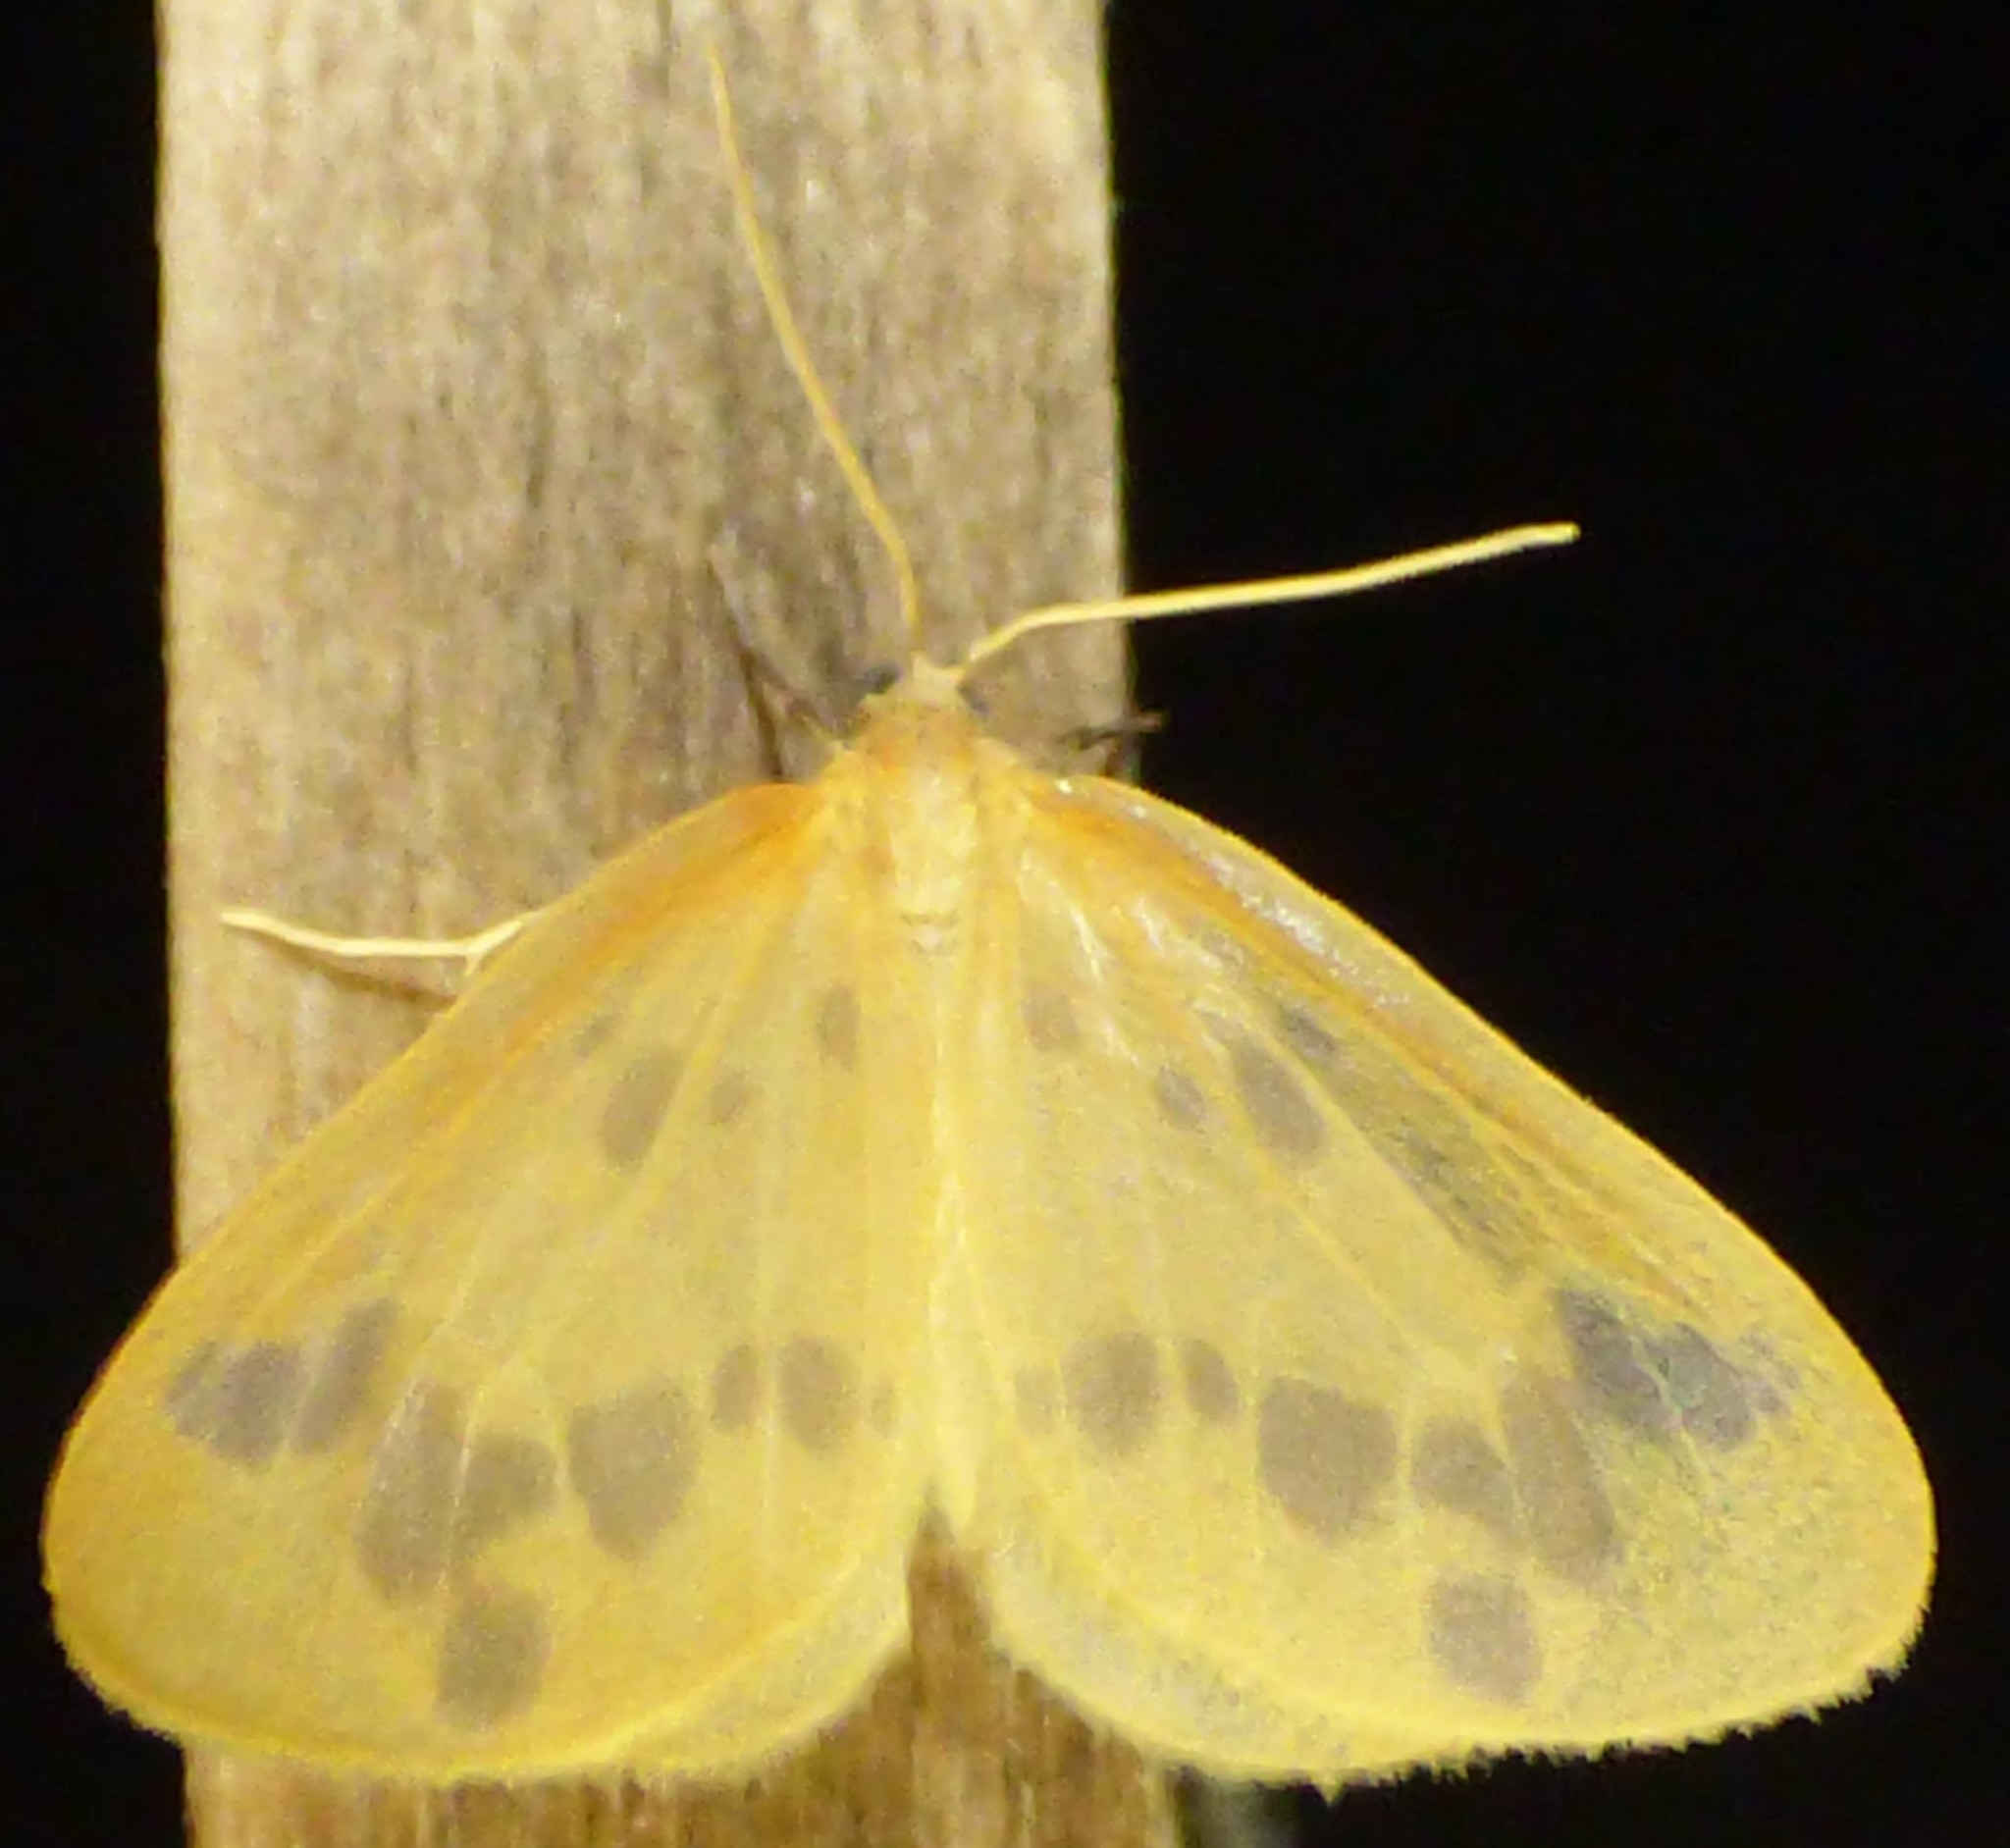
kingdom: Animalia
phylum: Arthropoda
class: Insecta
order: Lepidoptera
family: Geometridae
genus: Eubaphe
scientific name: Eubaphe mendica
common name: Beggar
